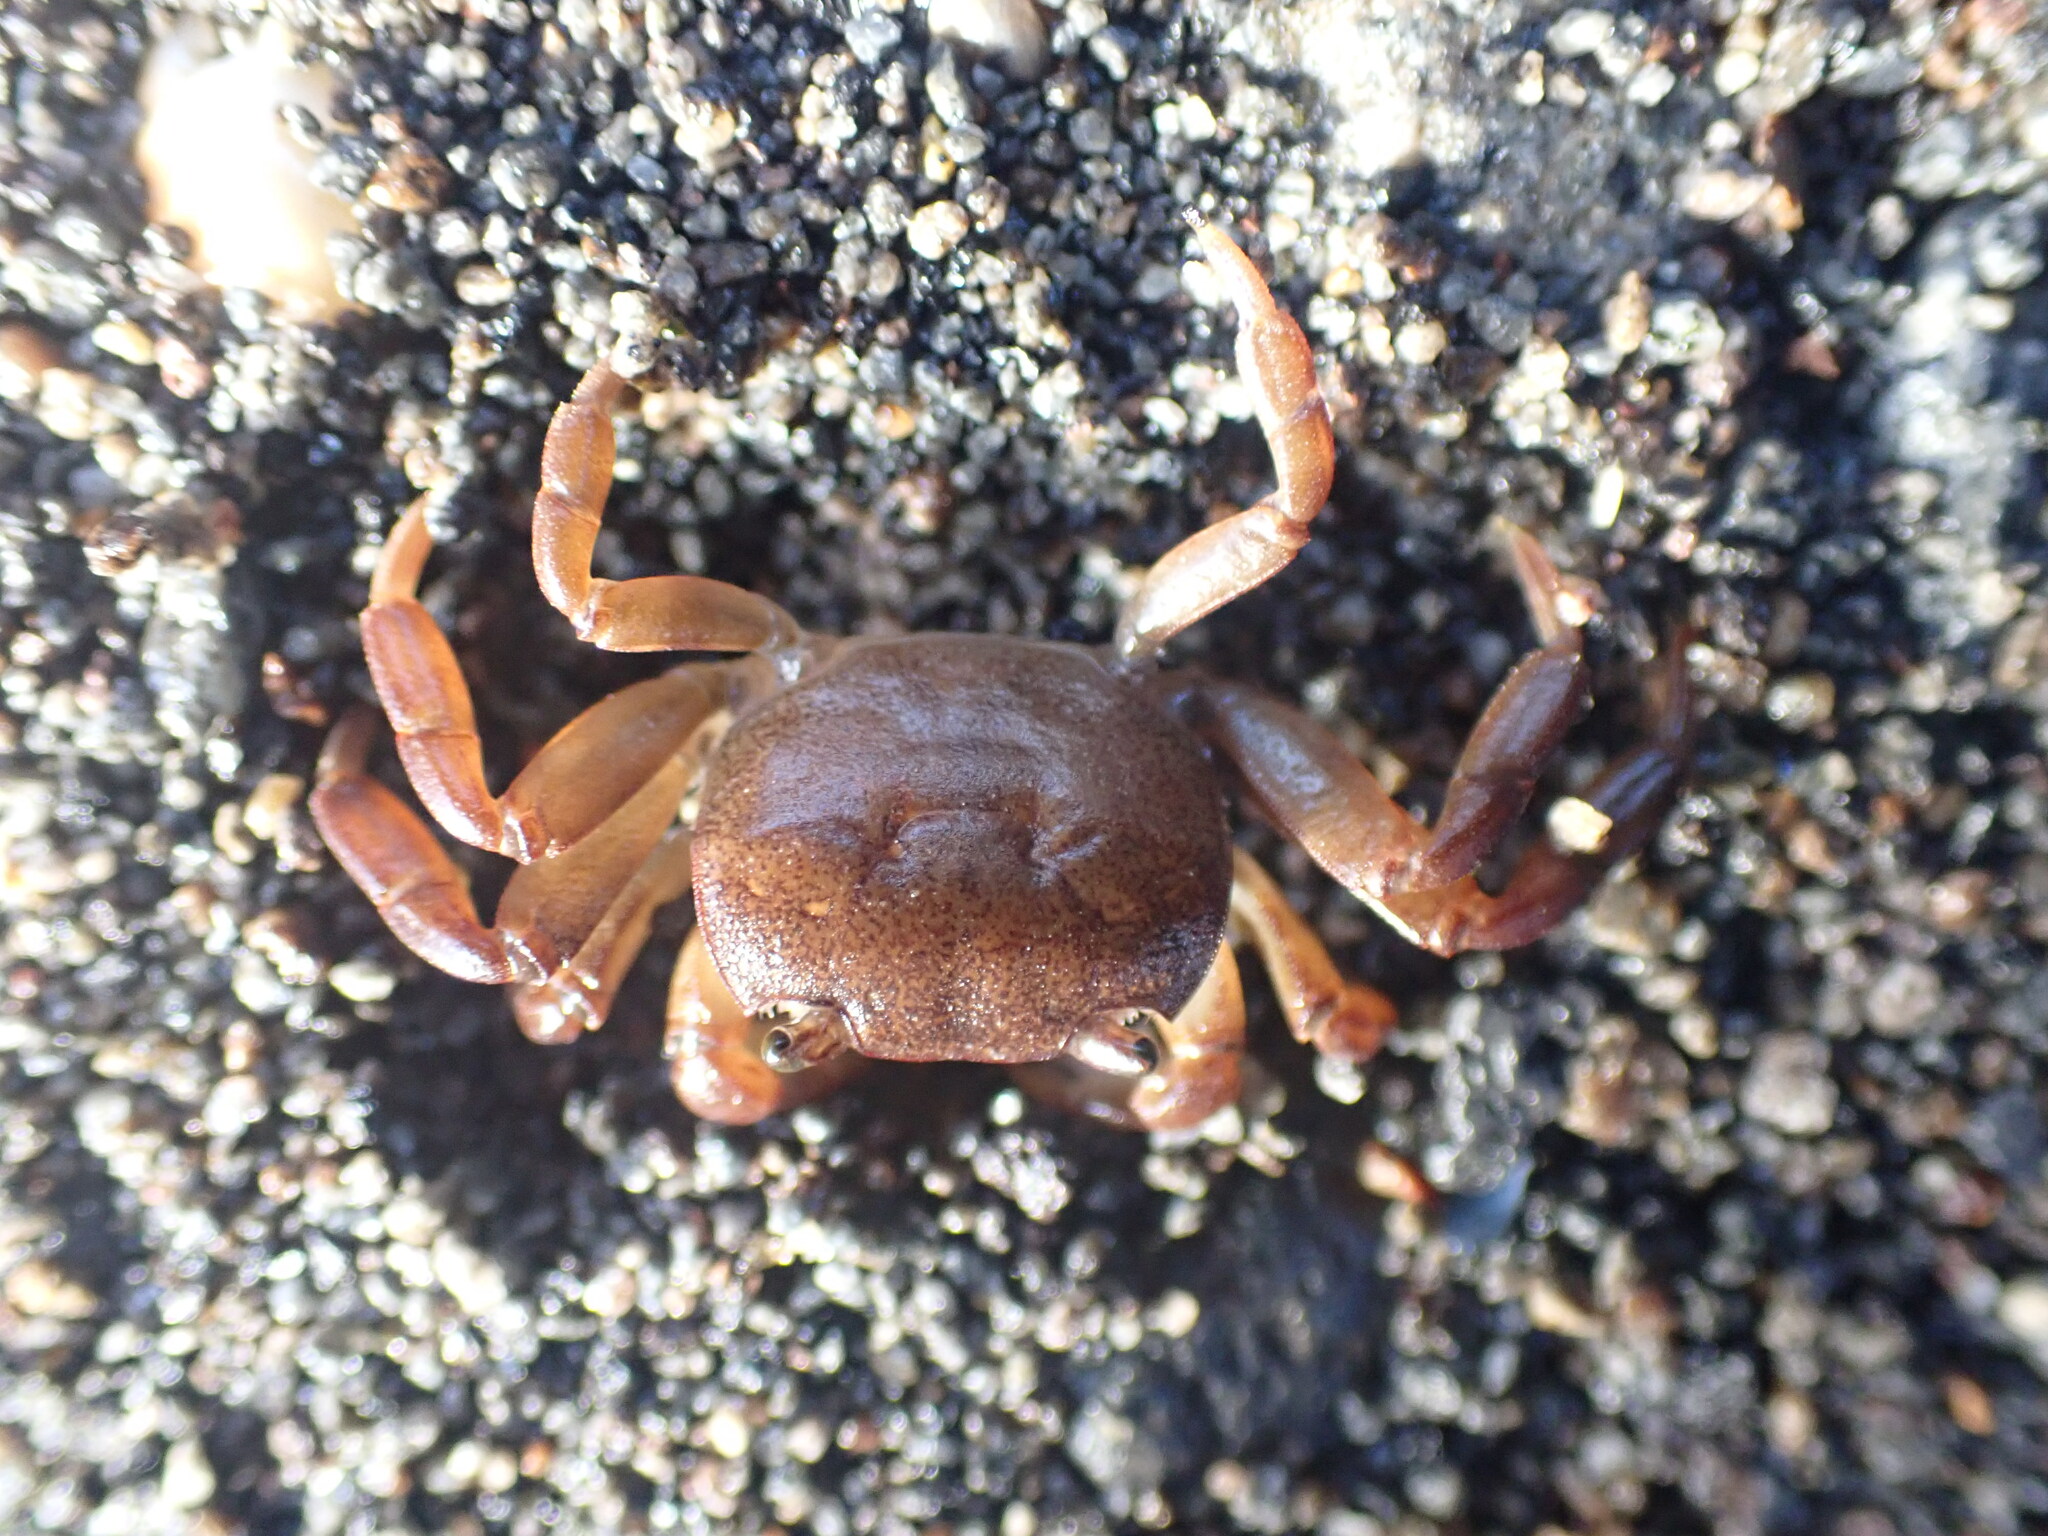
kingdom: Animalia
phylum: Arthropoda
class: Malacostraca
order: Decapoda
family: Varunidae
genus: Cyclograpsus
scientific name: Cyclograpsus lavauxi
